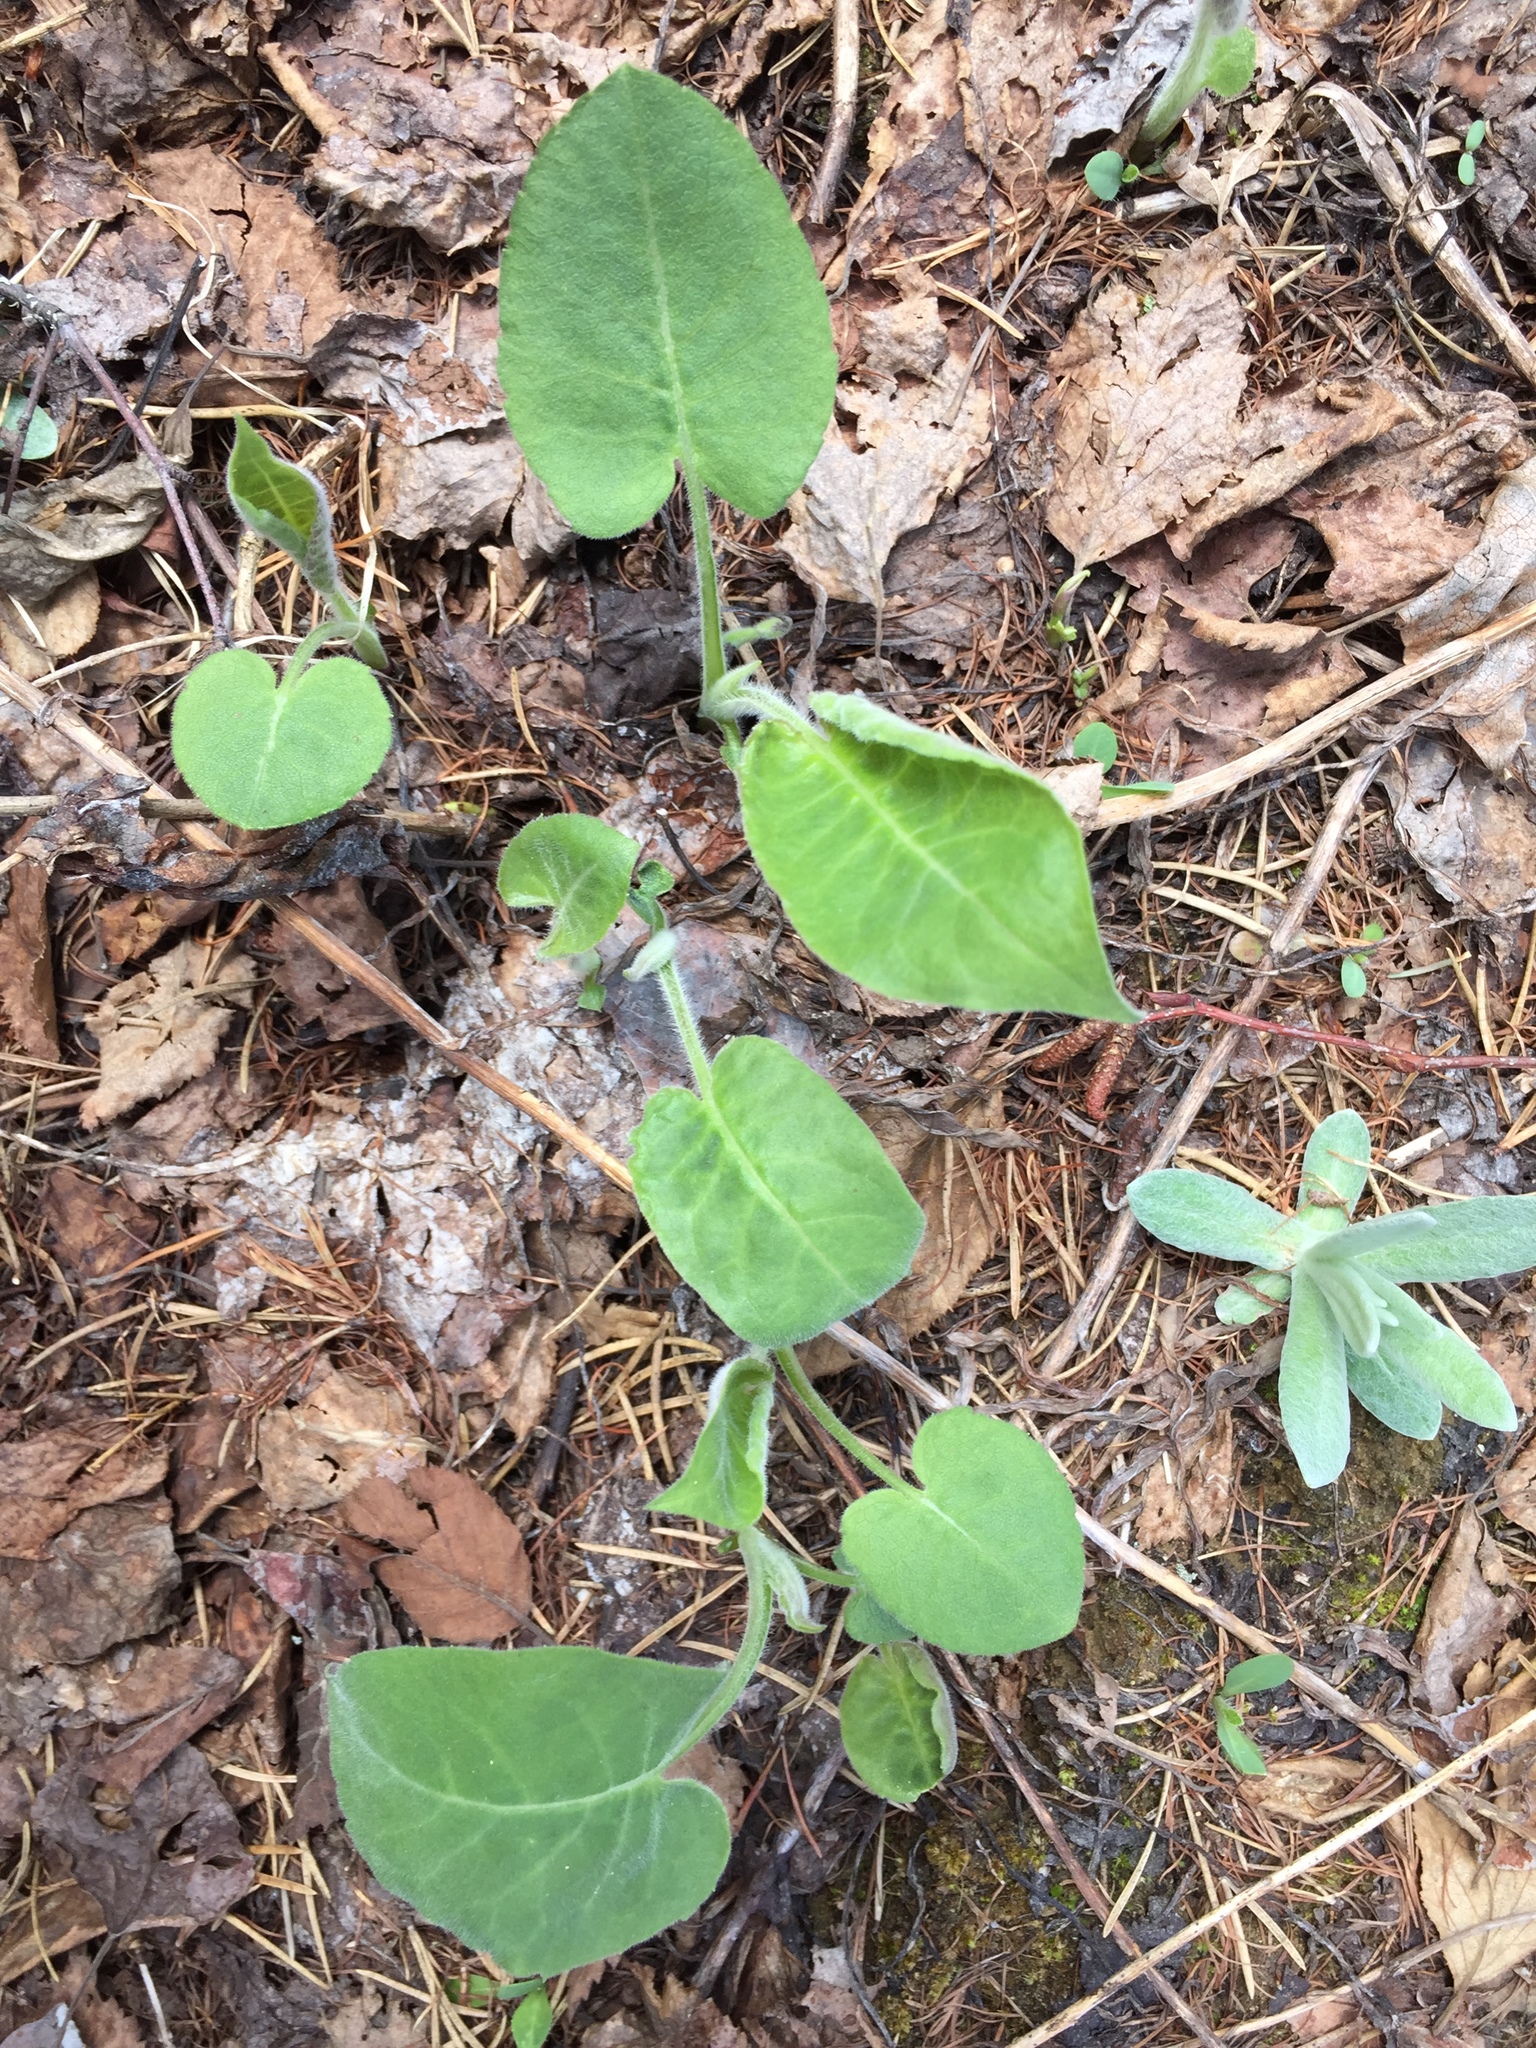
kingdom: Plantae
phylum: Tracheophyta
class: Magnoliopsida
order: Asterales
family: Asteraceae
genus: Eurybia
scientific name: Eurybia macrophylla
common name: Big-leaved aster
